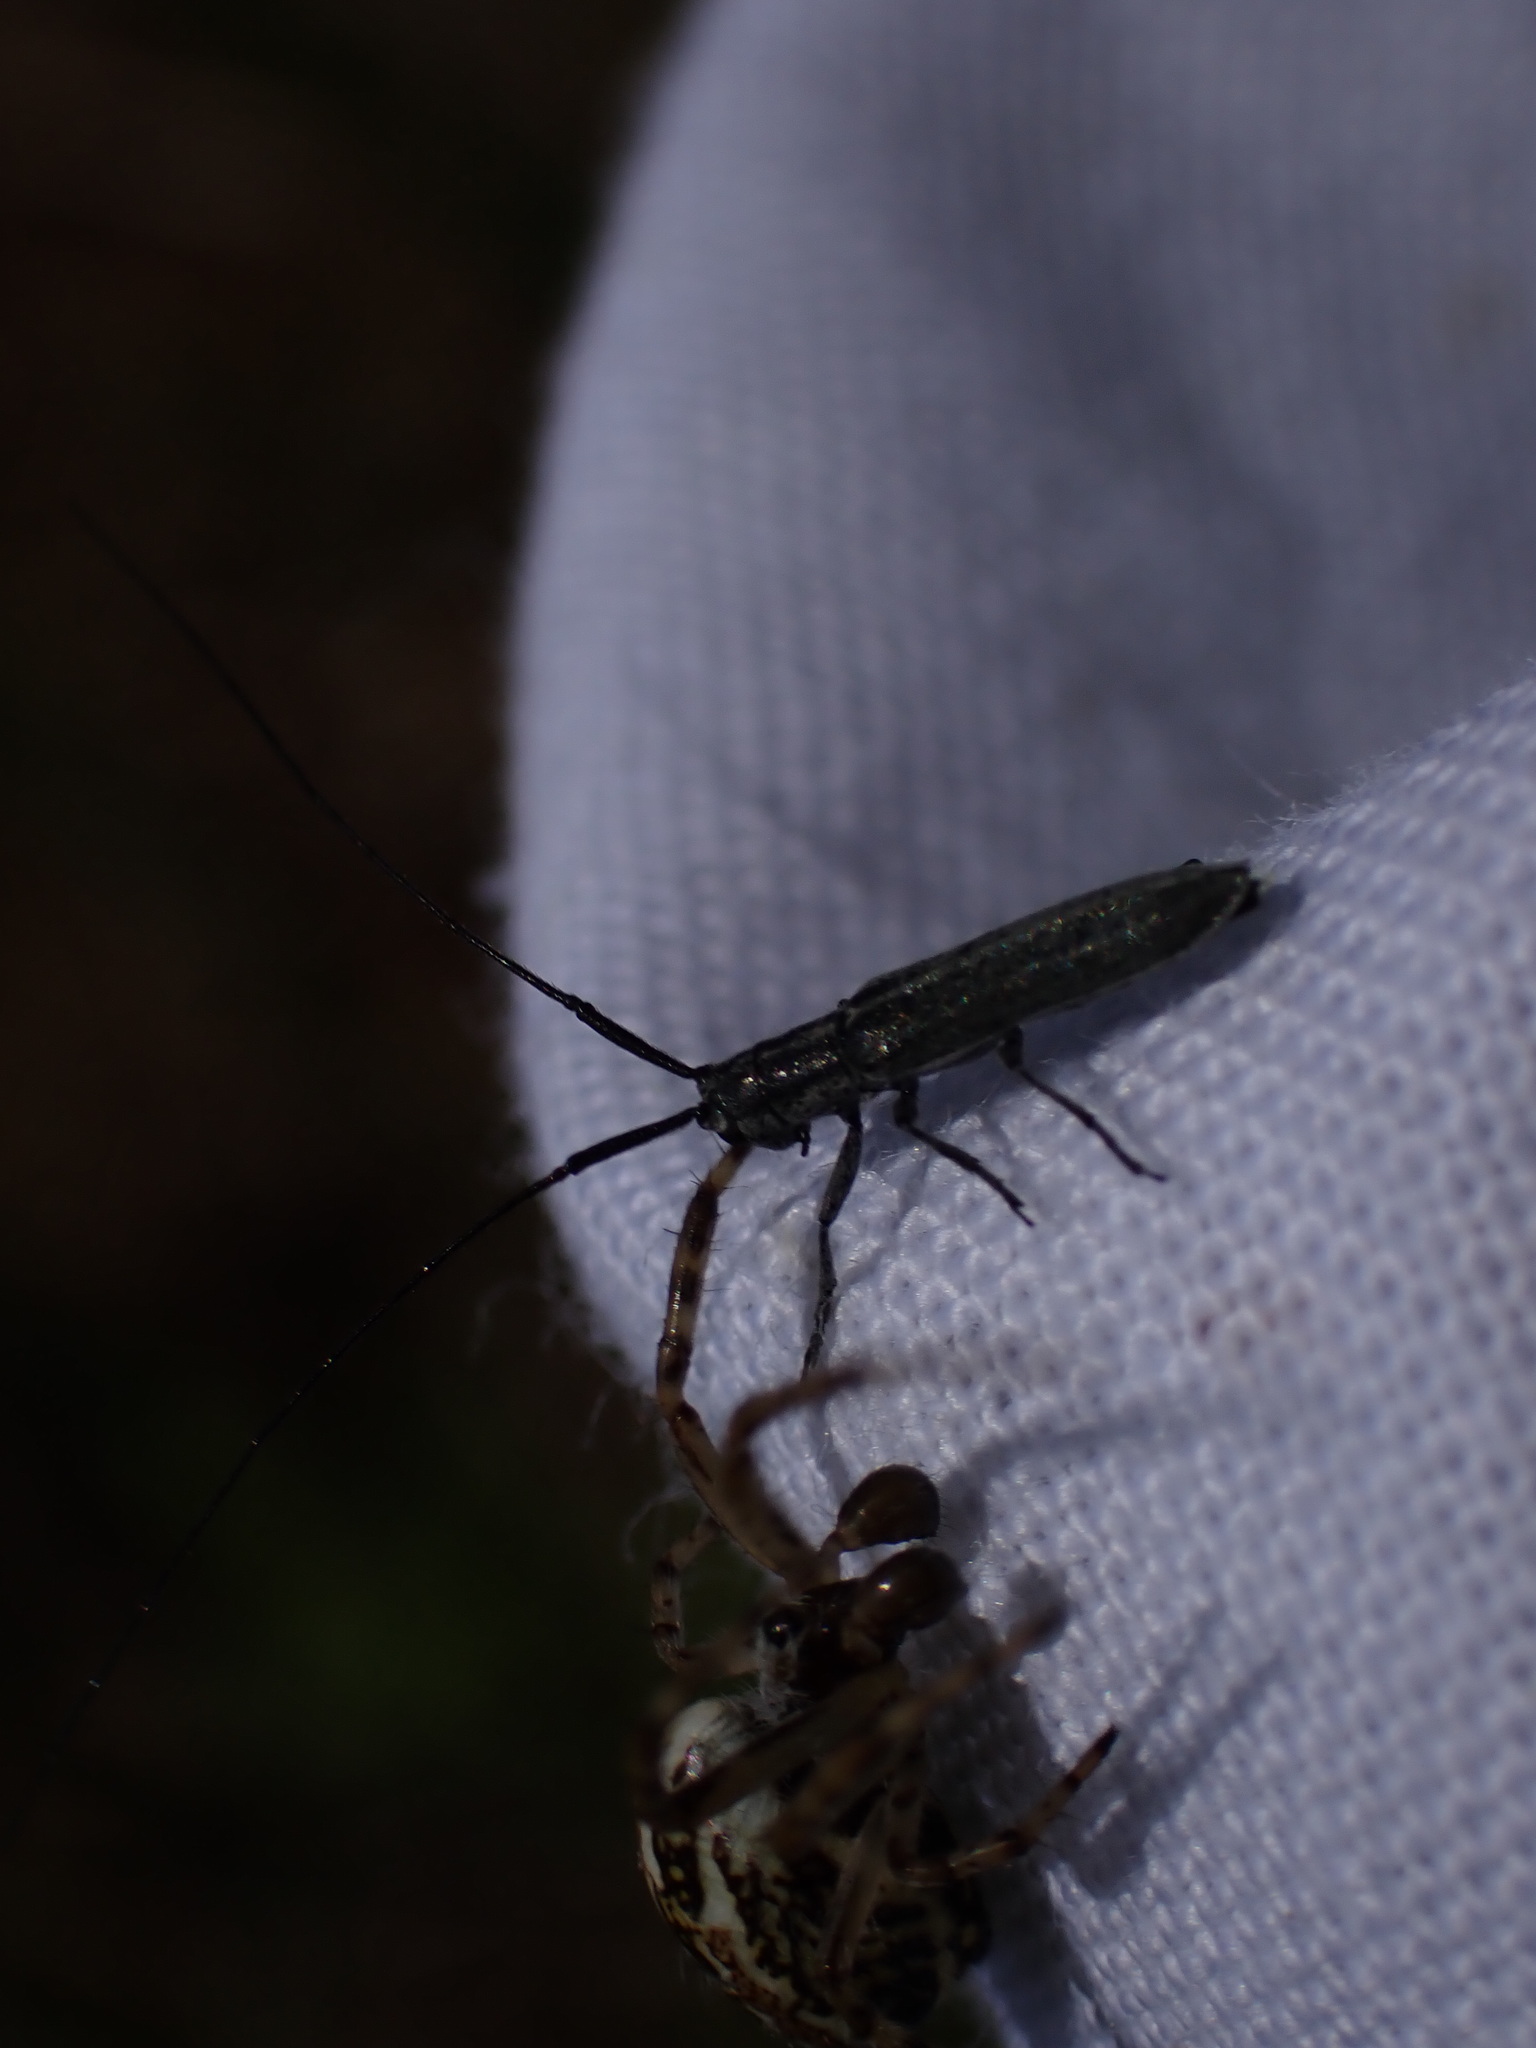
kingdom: Animalia
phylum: Arthropoda
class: Insecta
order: Coleoptera
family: Cerambycidae
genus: Calamobius
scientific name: Calamobius filum
